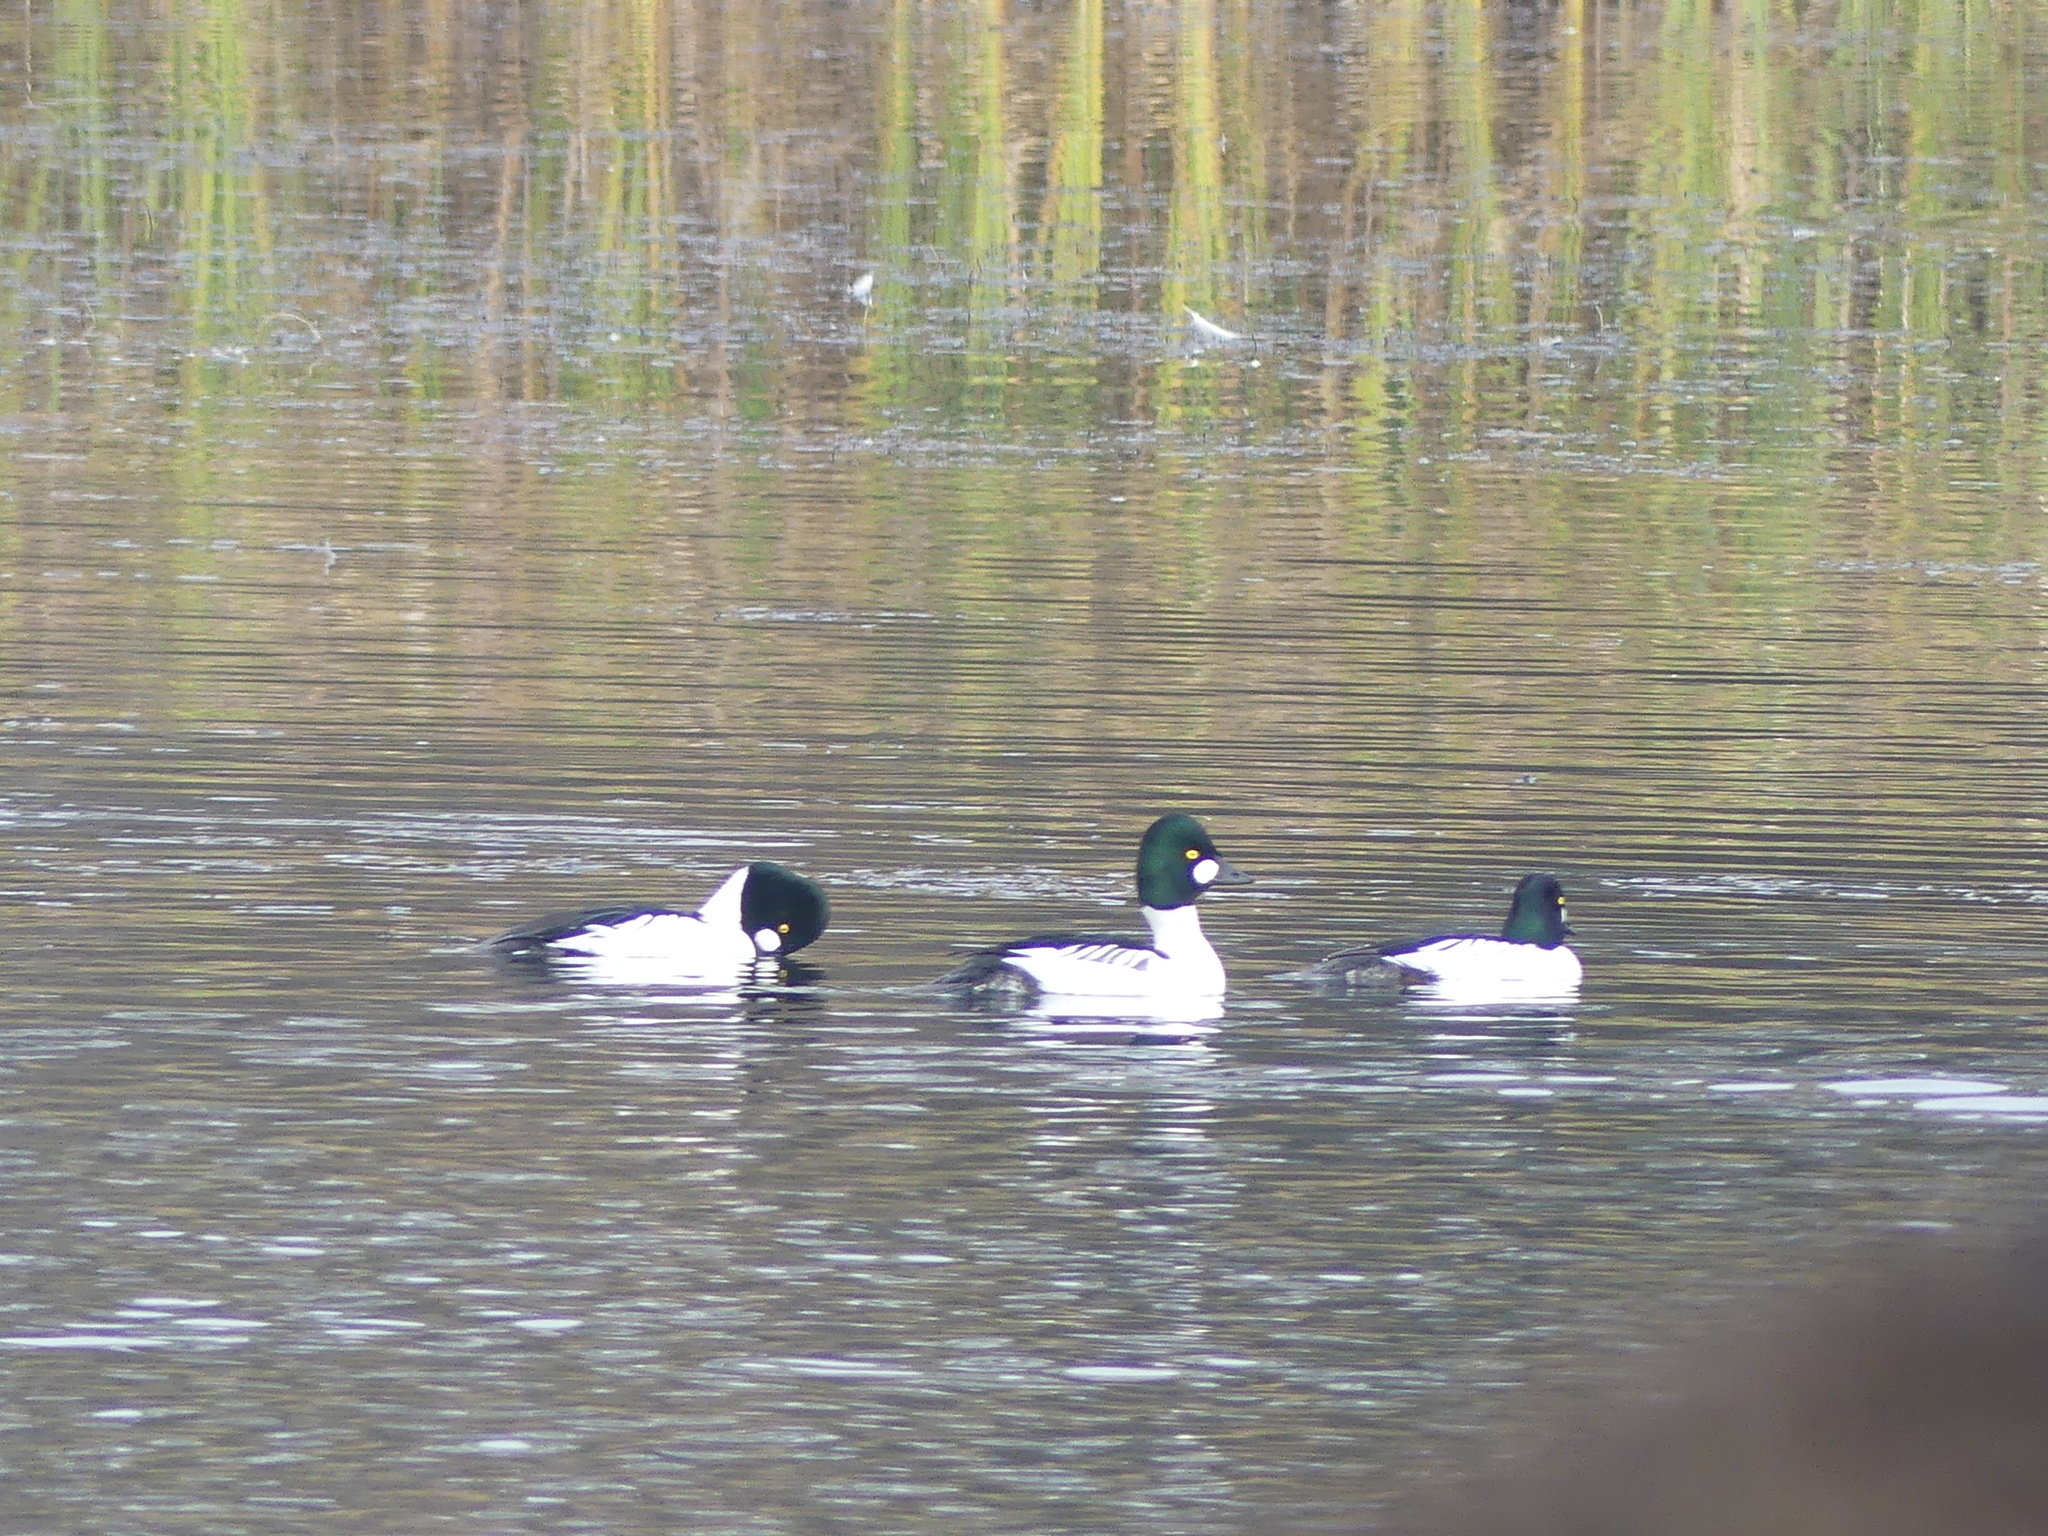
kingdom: Animalia
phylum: Chordata
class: Aves
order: Anseriformes
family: Anatidae
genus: Bucephala
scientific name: Bucephala clangula
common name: Common goldeneye
